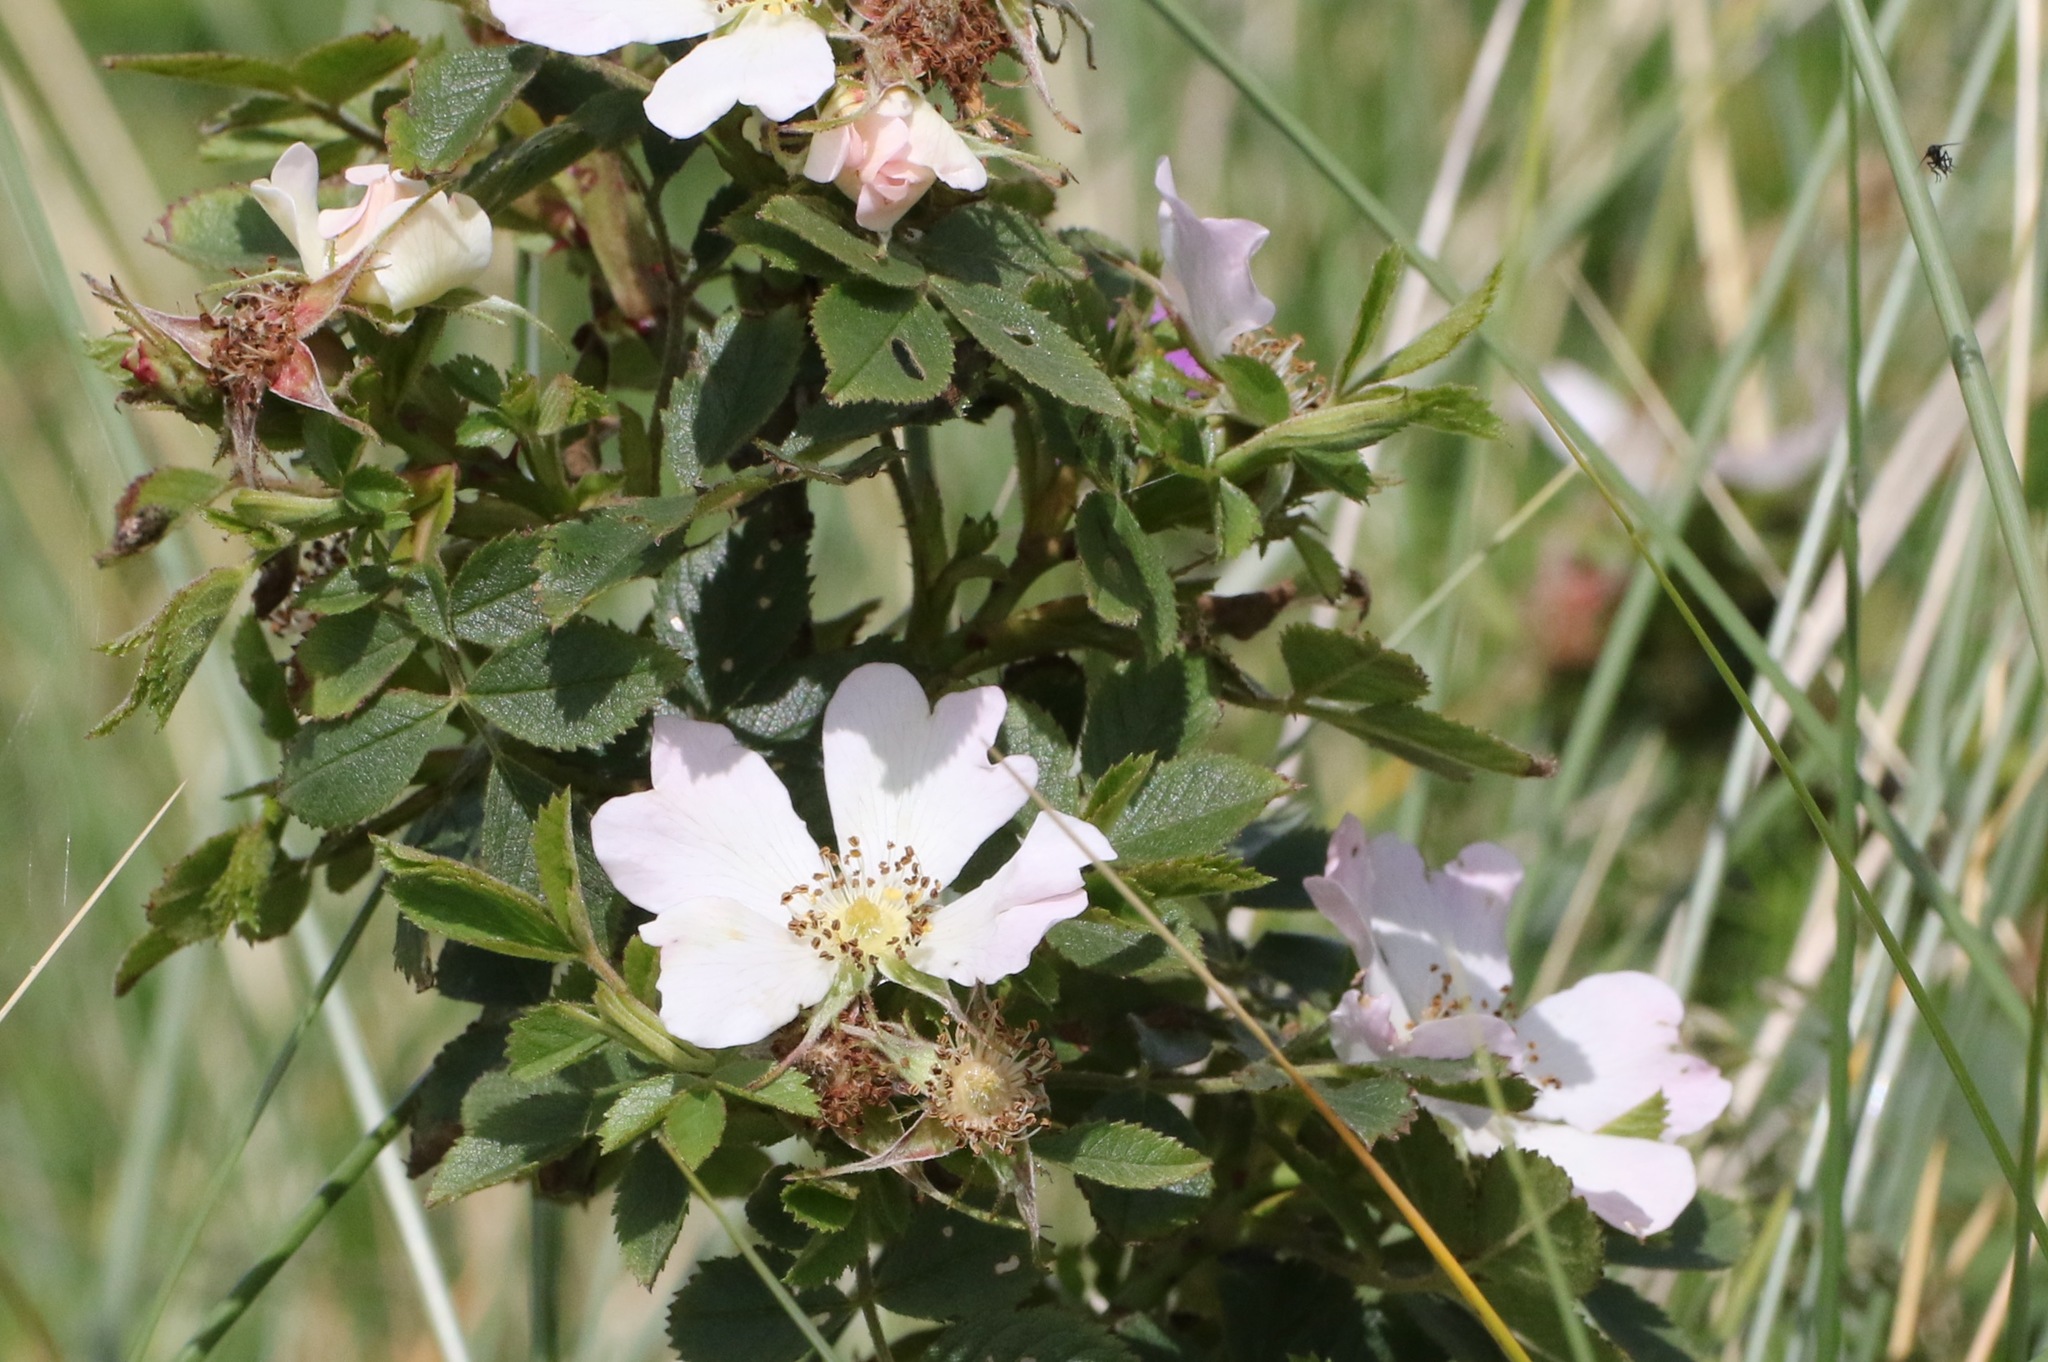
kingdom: Plantae
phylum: Tracheophyta
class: Magnoliopsida
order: Rosales
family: Rosaceae
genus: Rosa
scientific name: Rosa canina
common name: Dog rose
